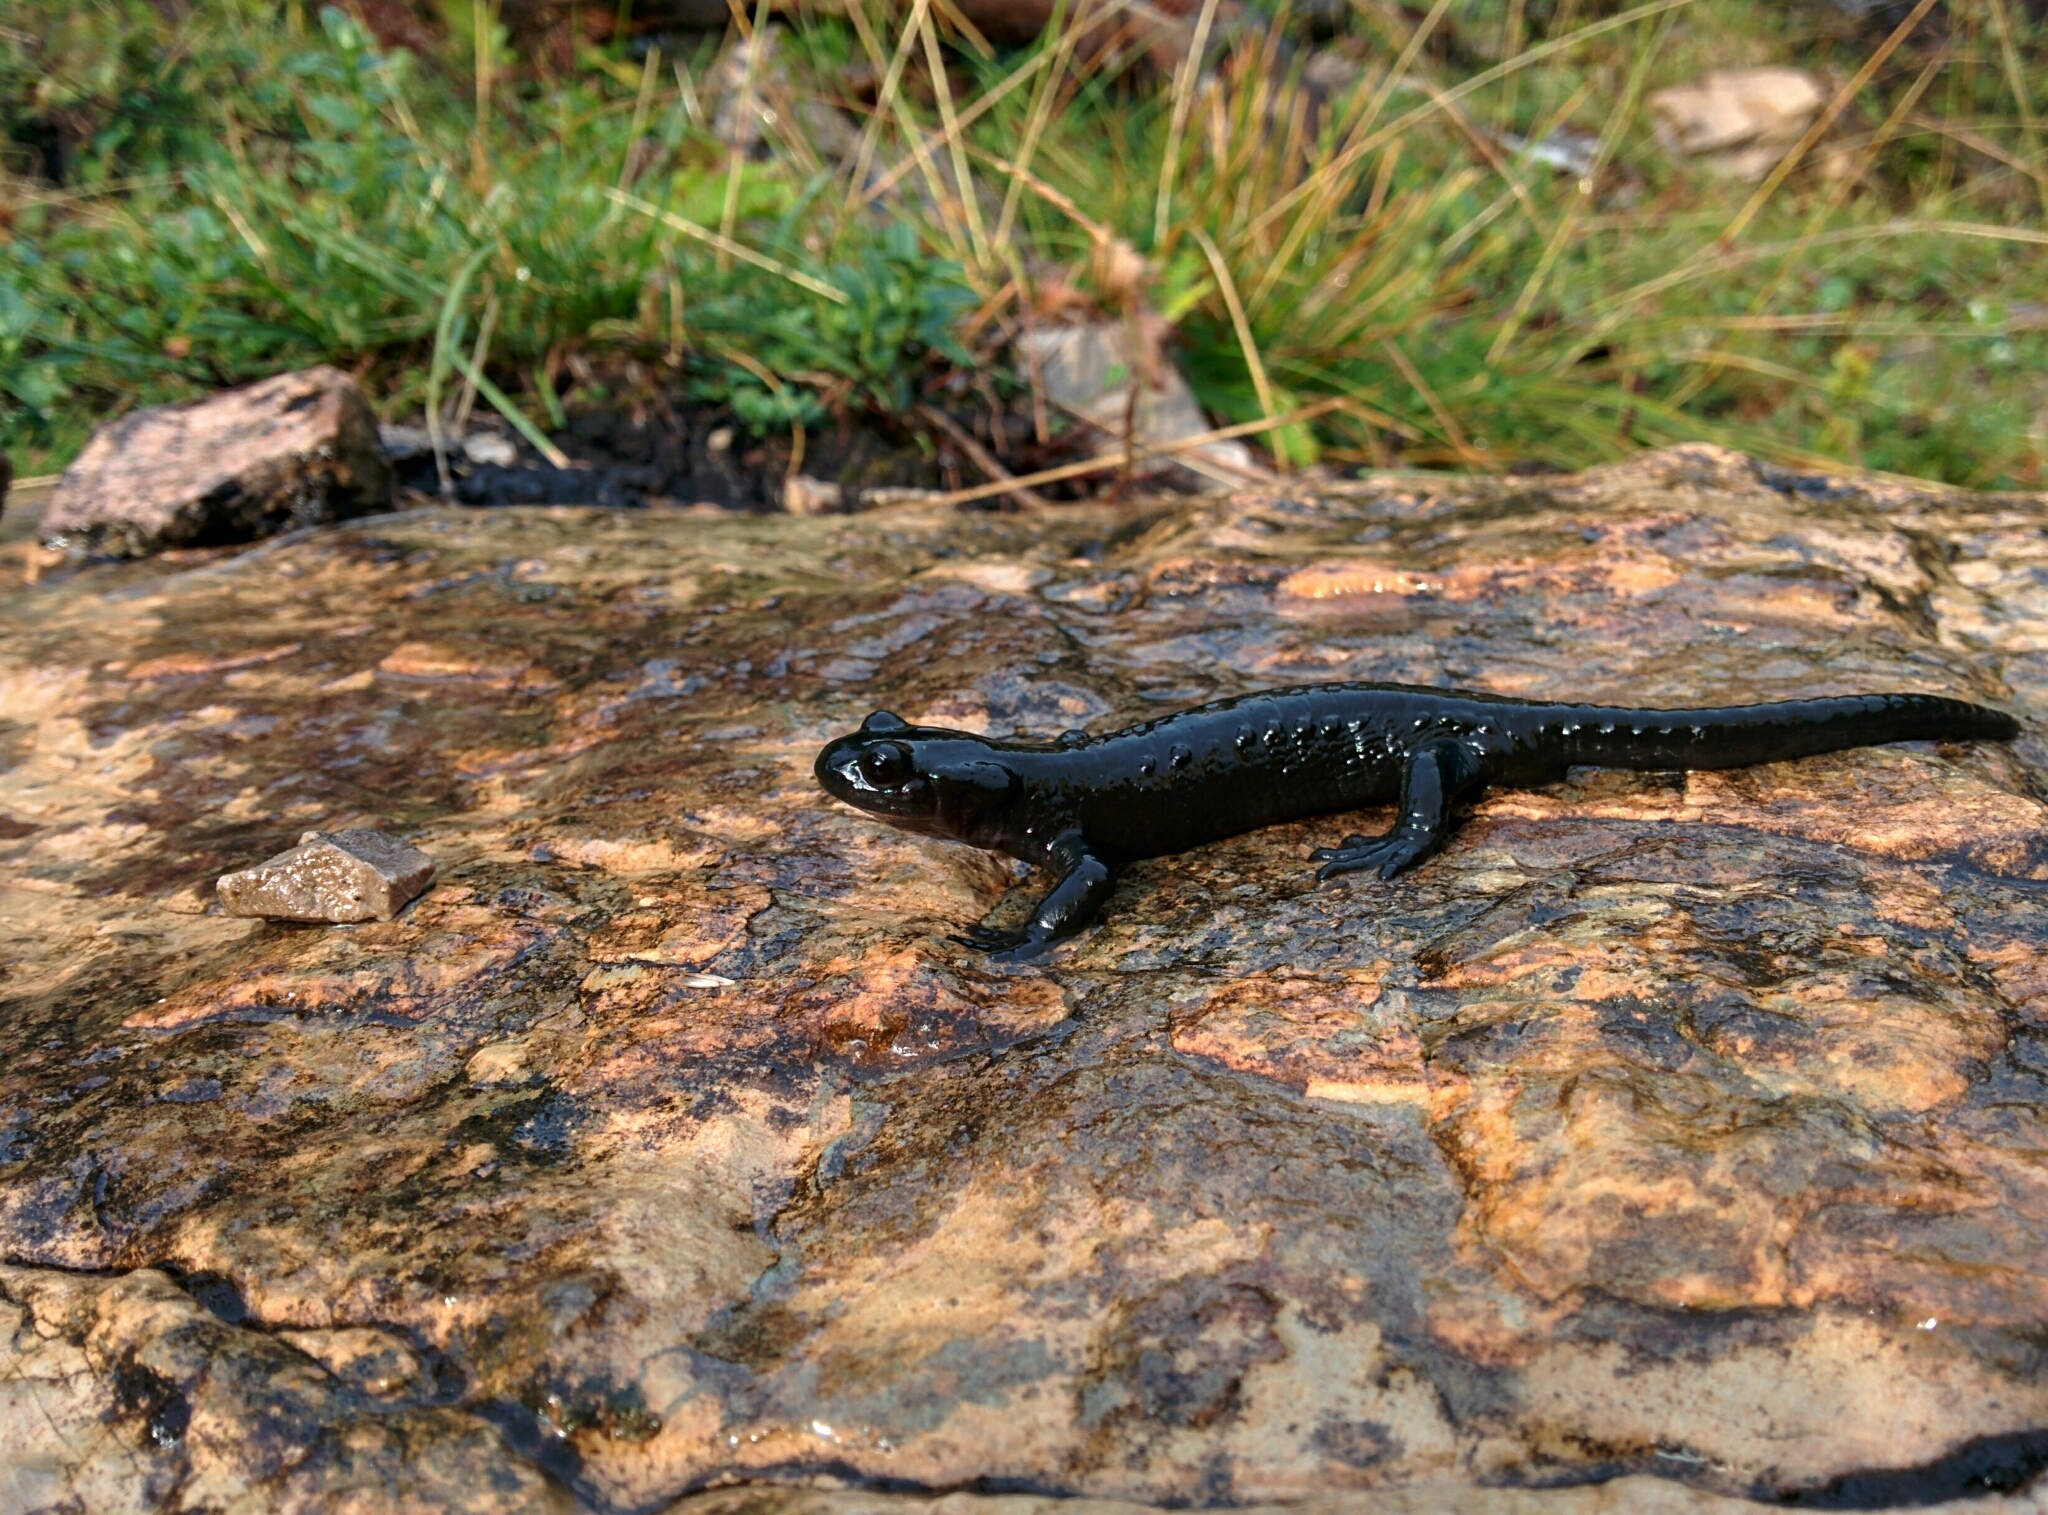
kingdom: Animalia
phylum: Chordata
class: Amphibia
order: Caudata
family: Salamandridae
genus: Salamandra
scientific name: Salamandra atra
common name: Alpine salamander
